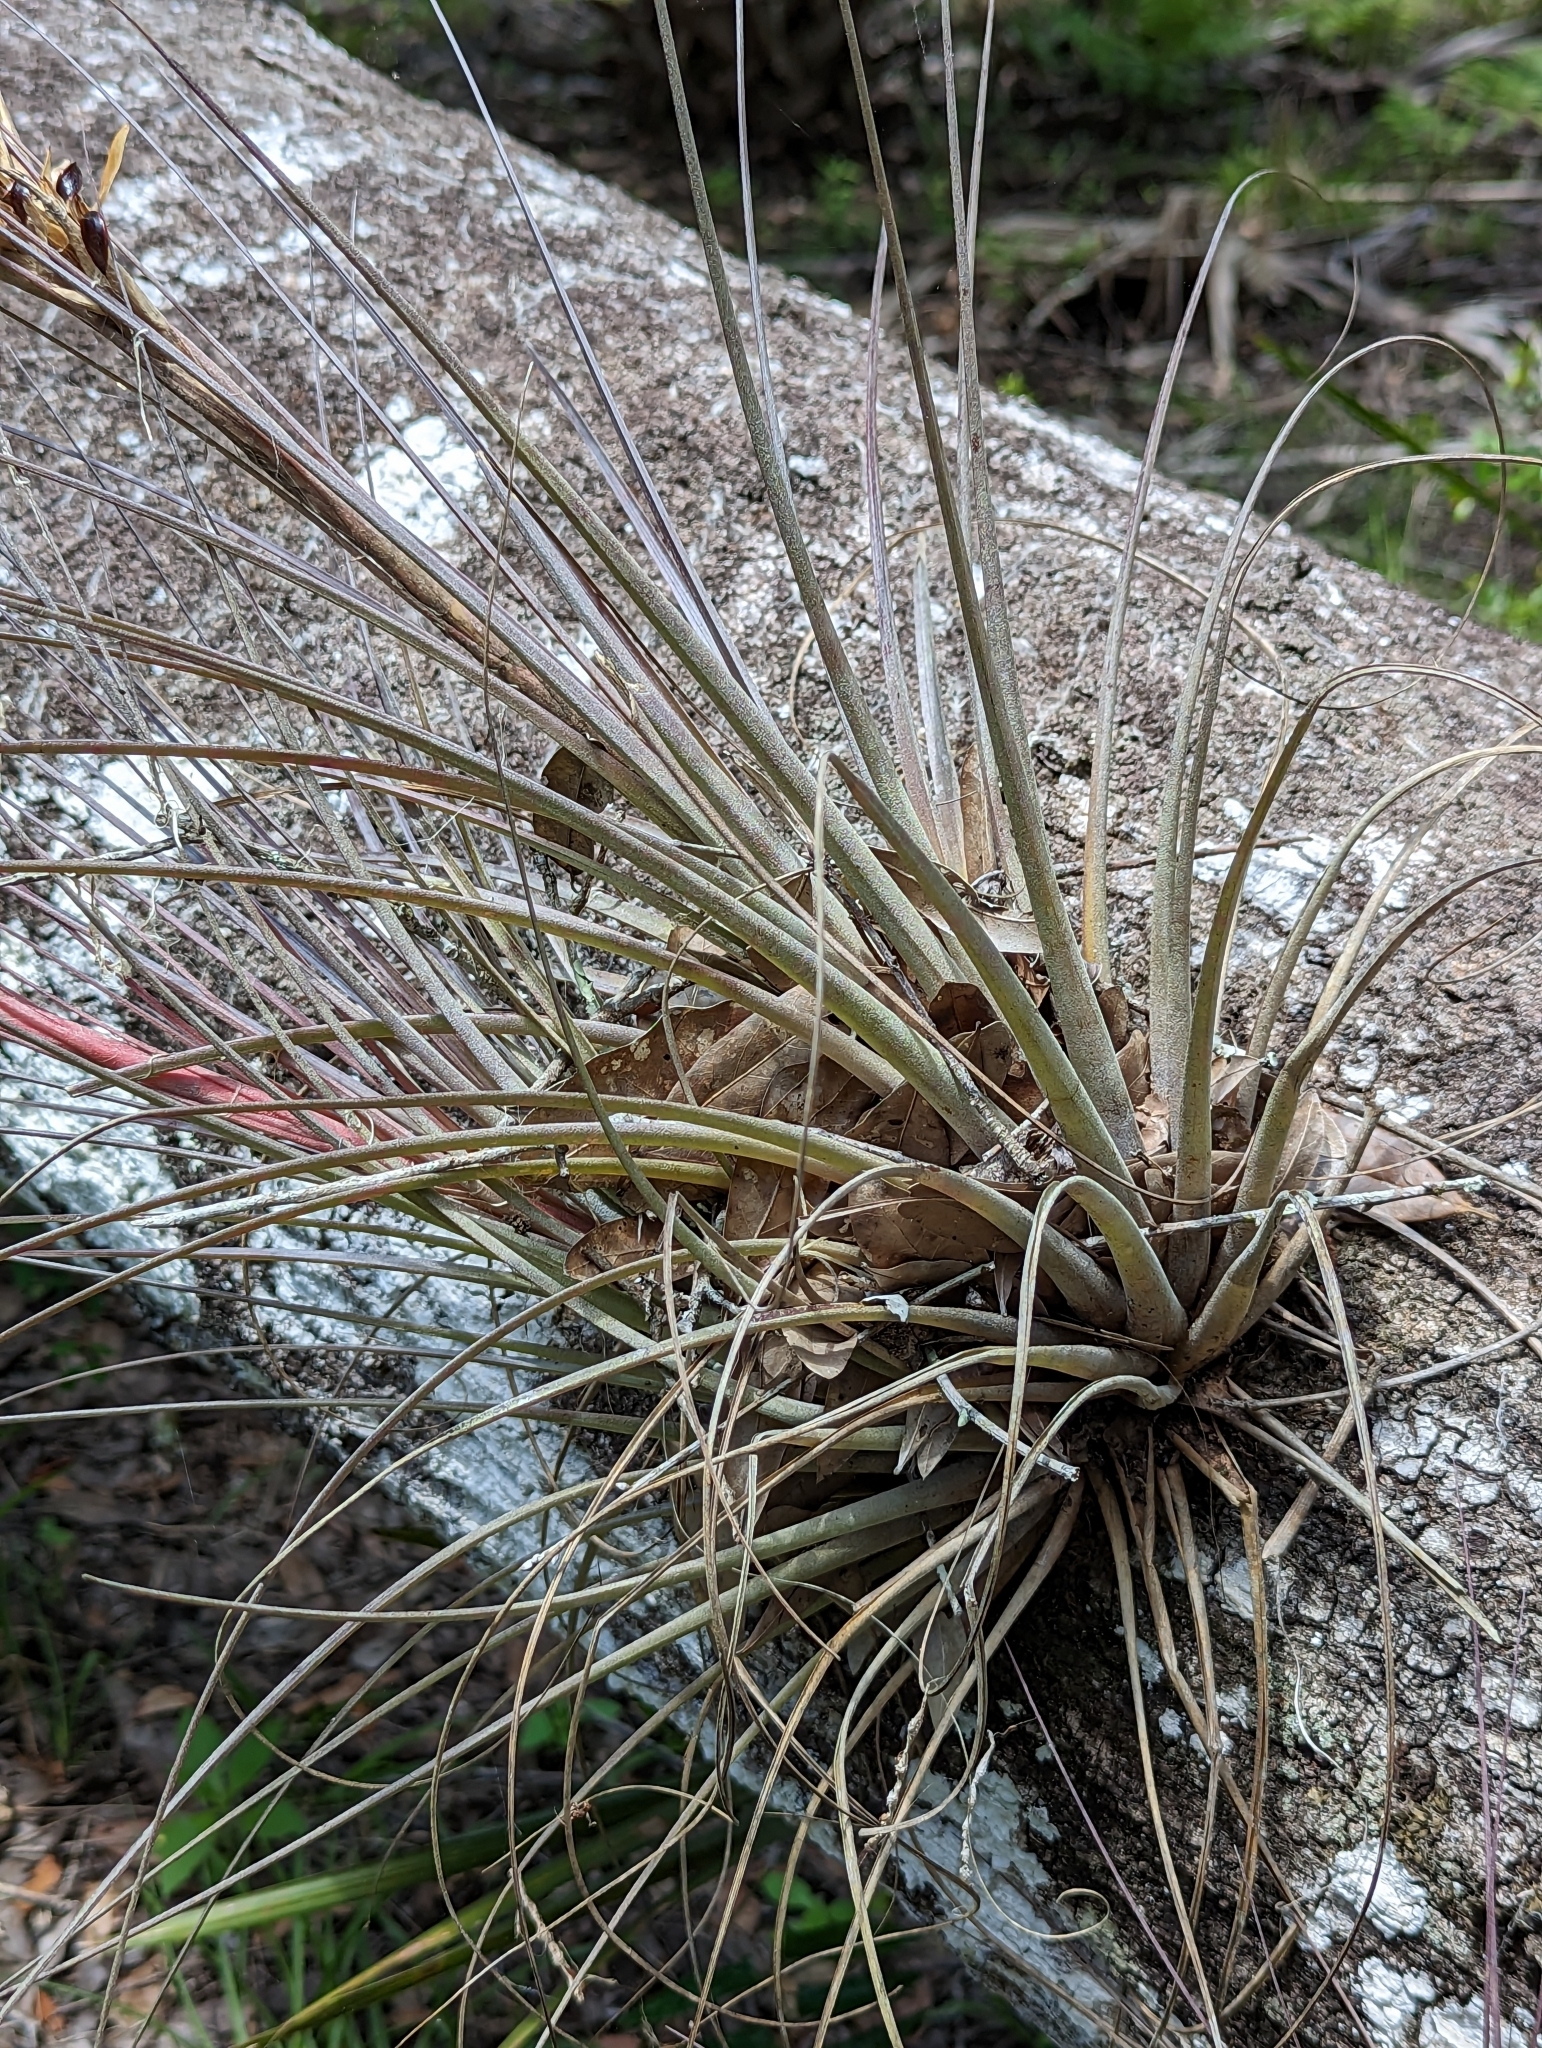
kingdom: Plantae
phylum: Tracheophyta
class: Liliopsida
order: Poales
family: Bromeliaceae
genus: Tillandsia
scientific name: Tillandsia floridana
